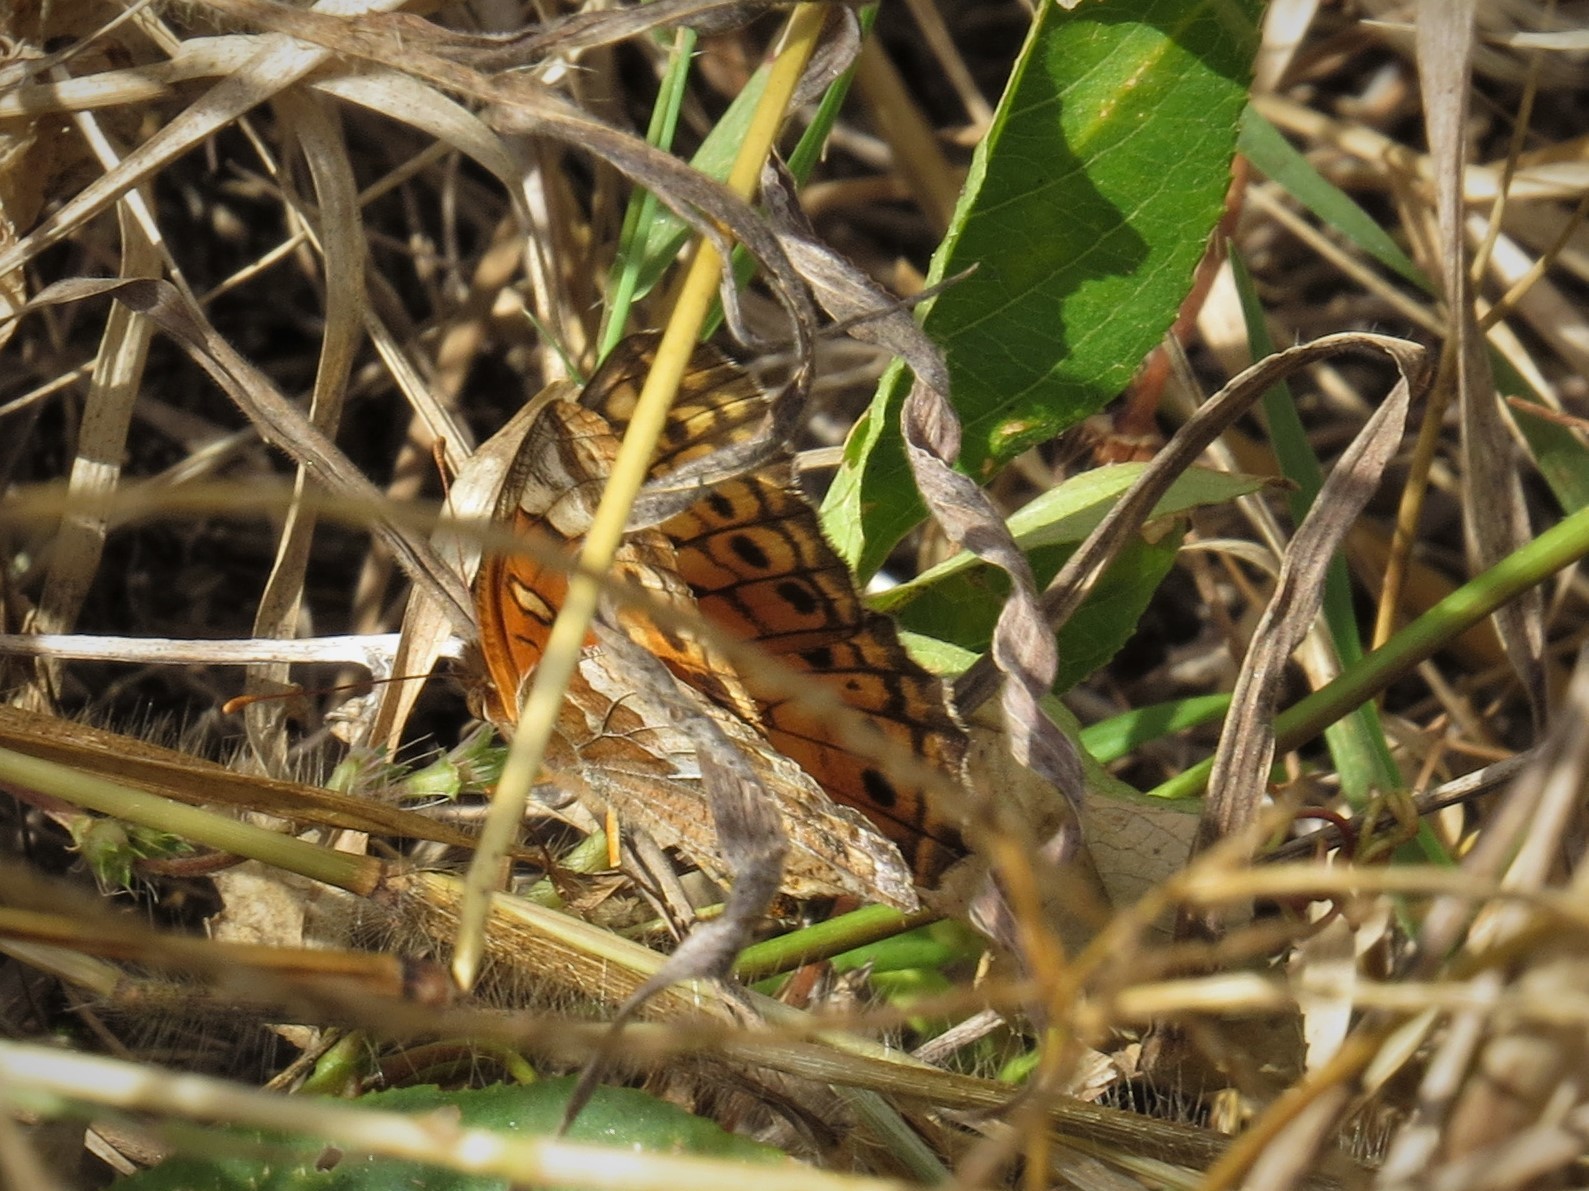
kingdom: Animalia
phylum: Arthropoda
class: Insecta
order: Lepidoptera
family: Nymphalidae
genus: Euptoieta
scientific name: Euptoieta claudia
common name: Variegated fritillary
